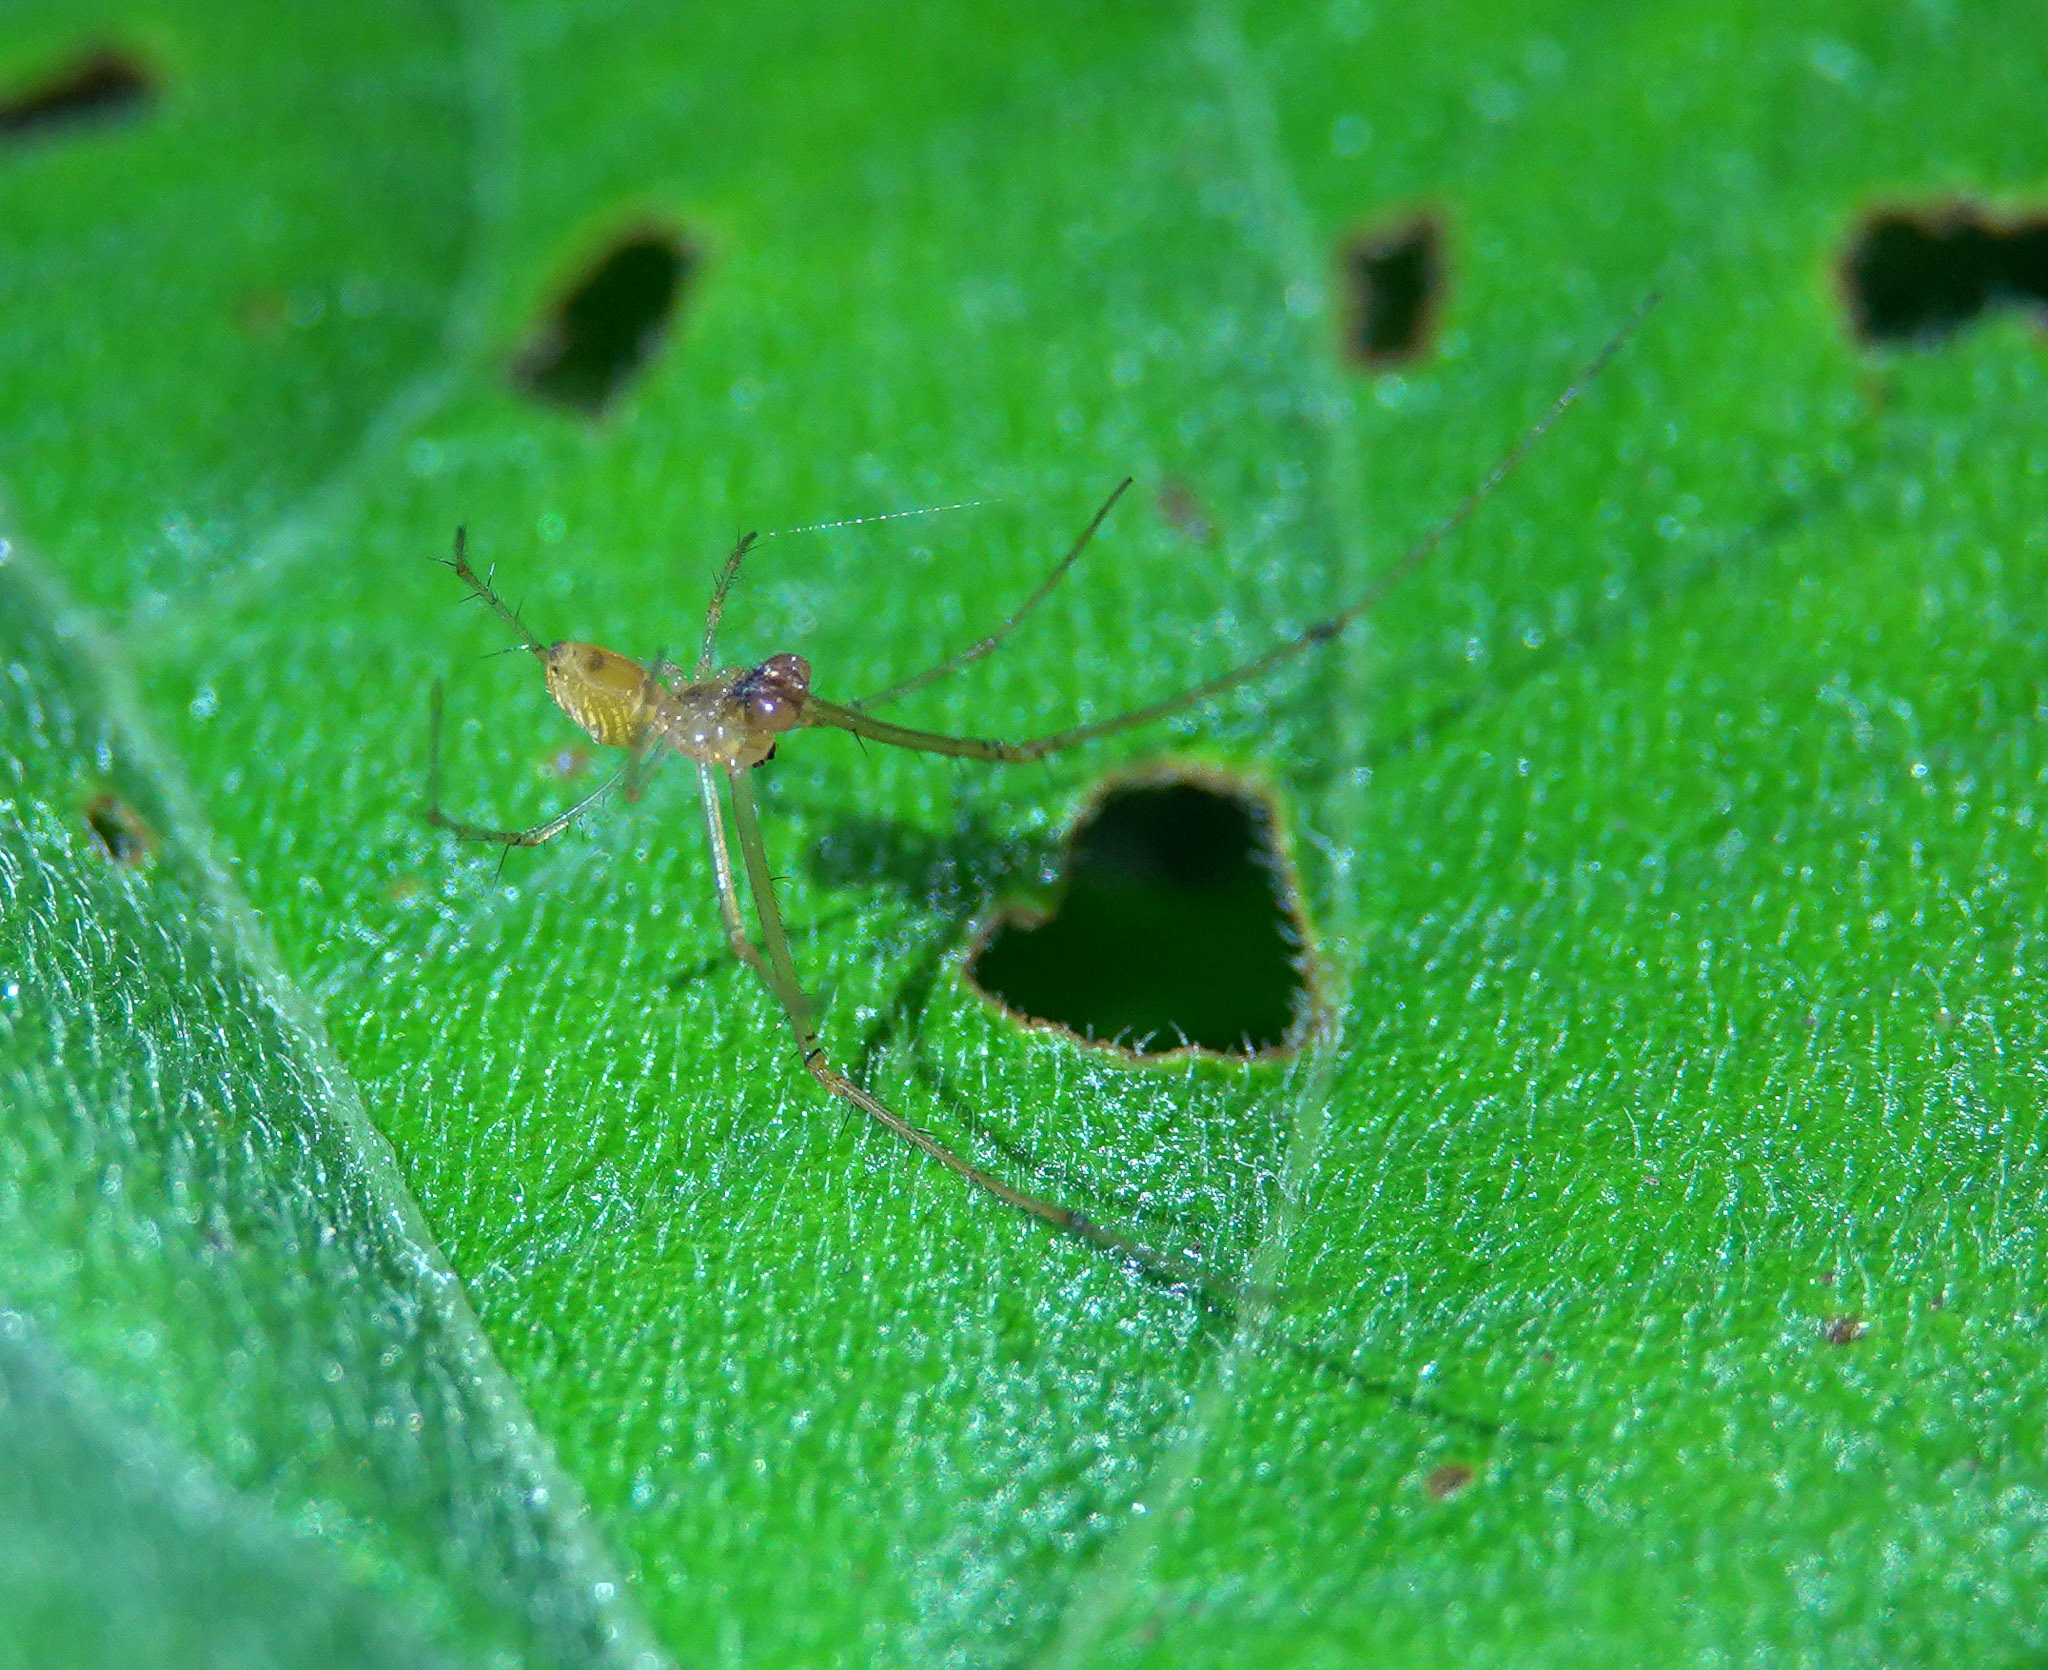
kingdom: Animalia
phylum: Arthropoda
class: Arachnida
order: Araneae
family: Tetragnathidae
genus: Tylorida
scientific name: Tylorida striata
